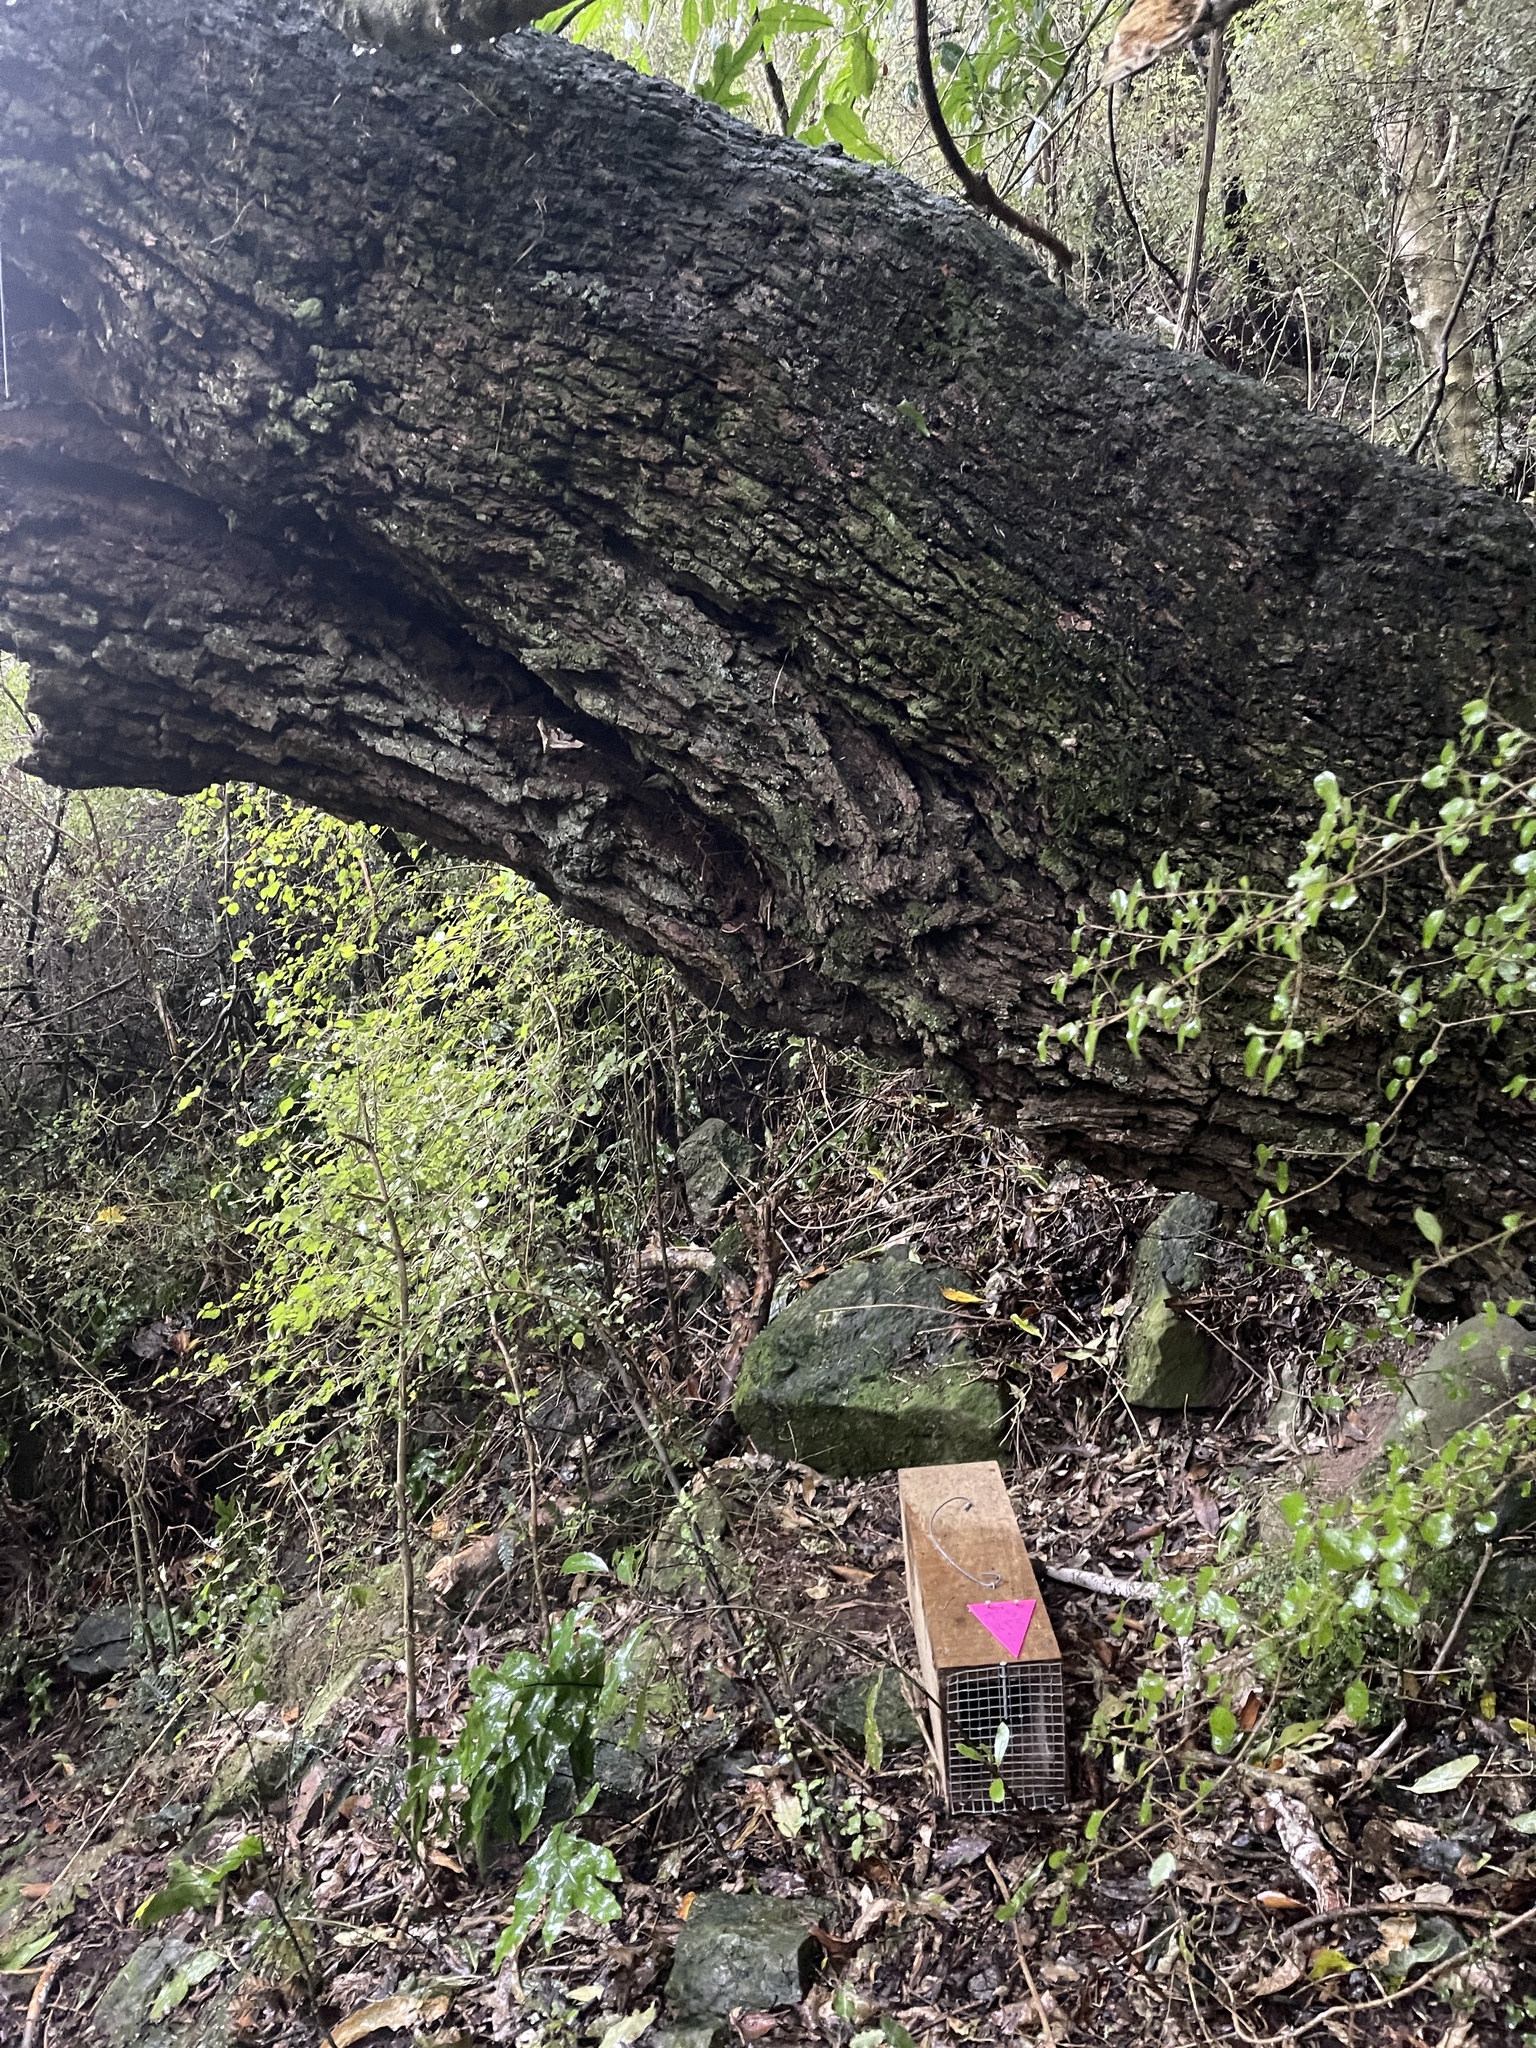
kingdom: Plantae
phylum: Tracheophyta
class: Magnoliopsida
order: Apiales
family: Griseliniaceae
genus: Griselinia
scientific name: Griselinia littoralis
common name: New zealand broadleaf
